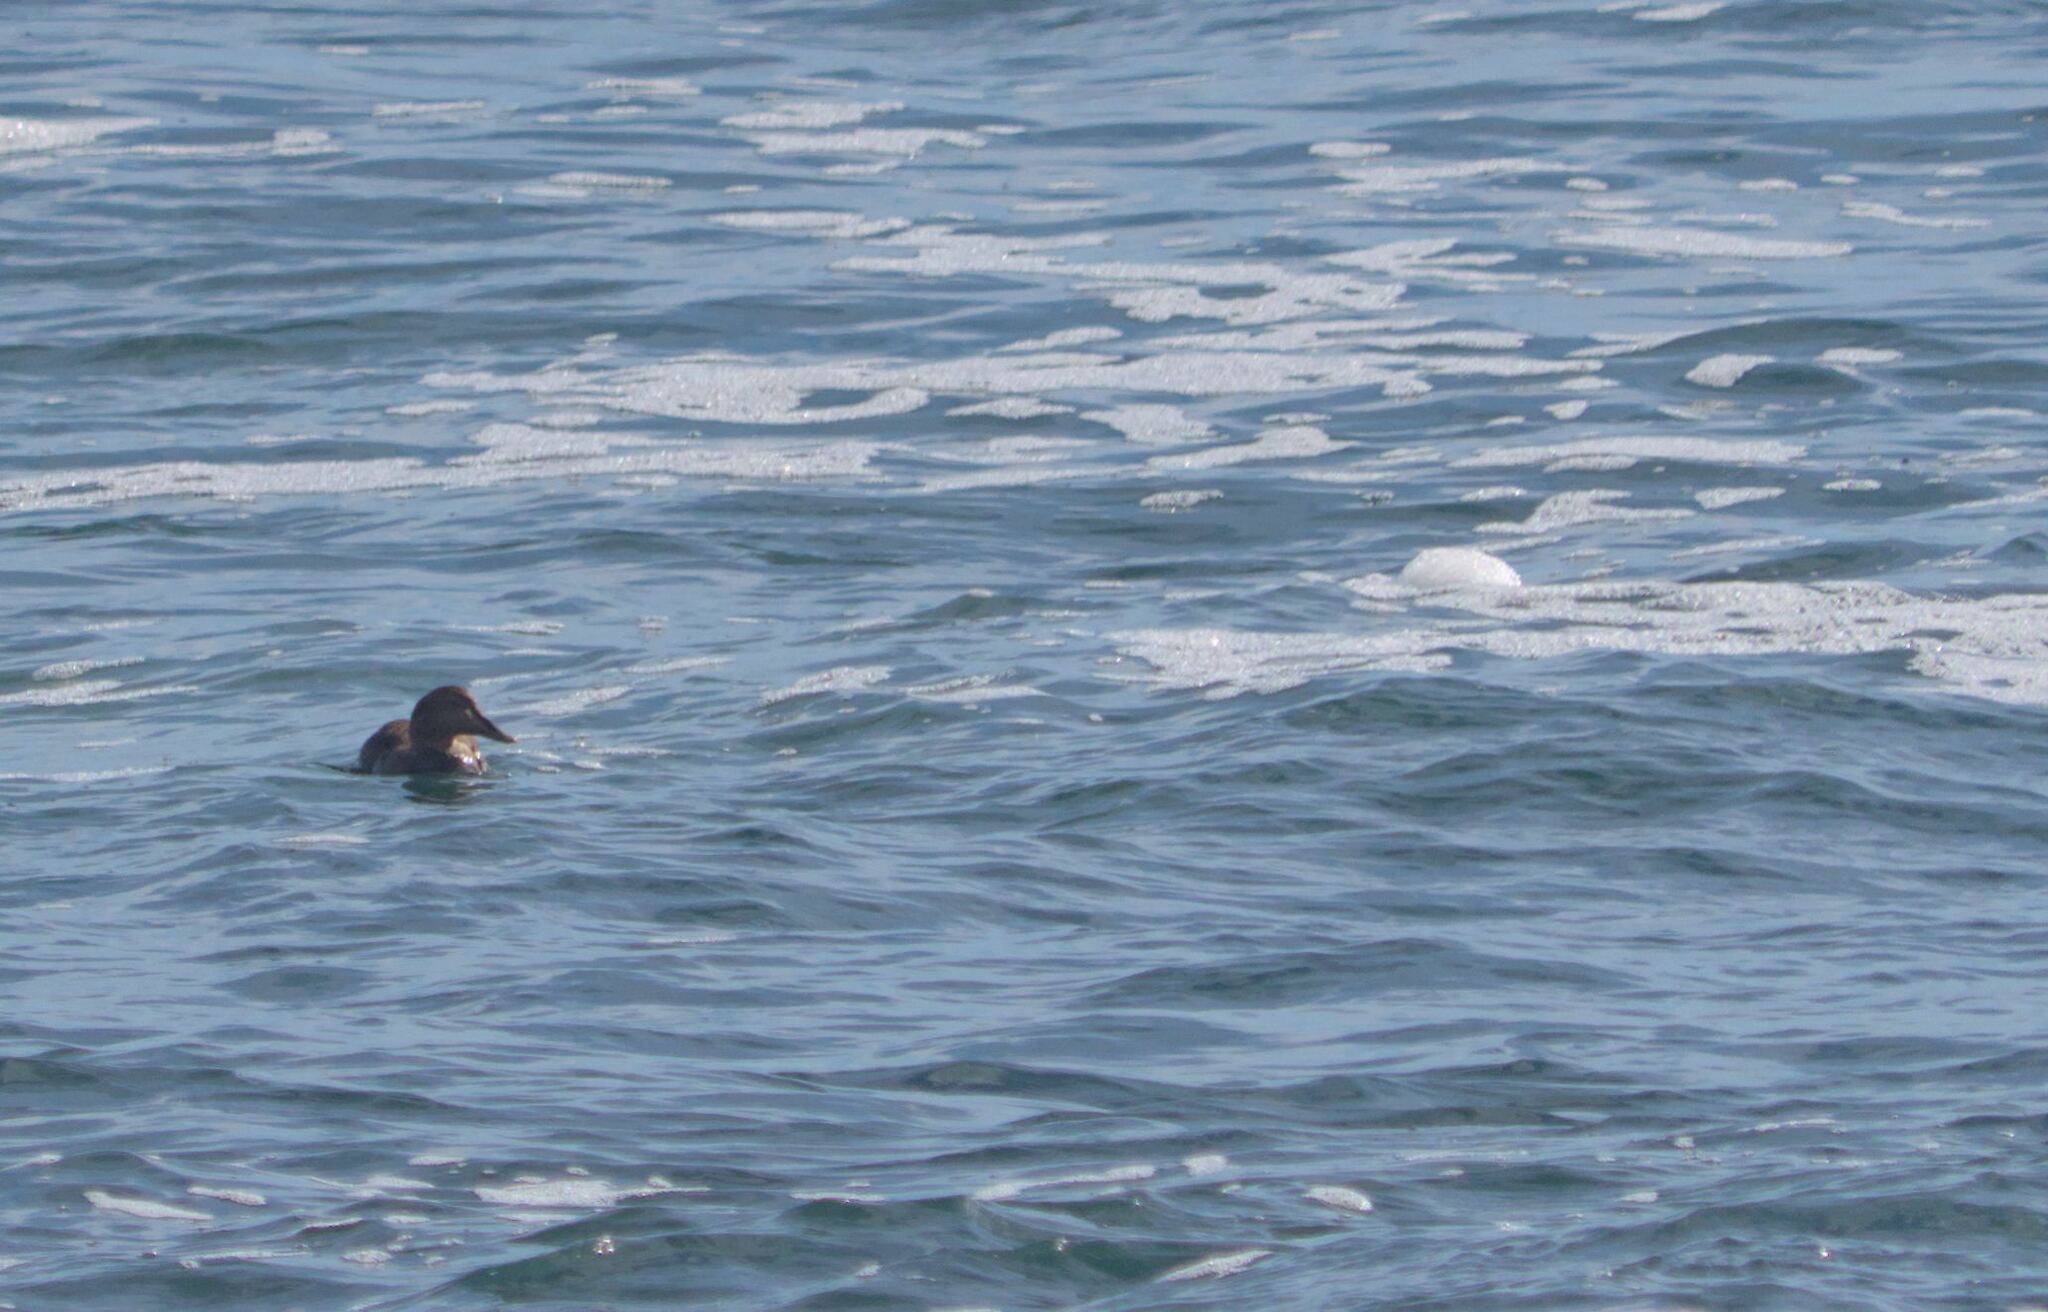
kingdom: Animalia
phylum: Chordata
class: Aves
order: Anseriformes
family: Anatidae
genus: Somateria
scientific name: Somateria mollissima
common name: Common eider
